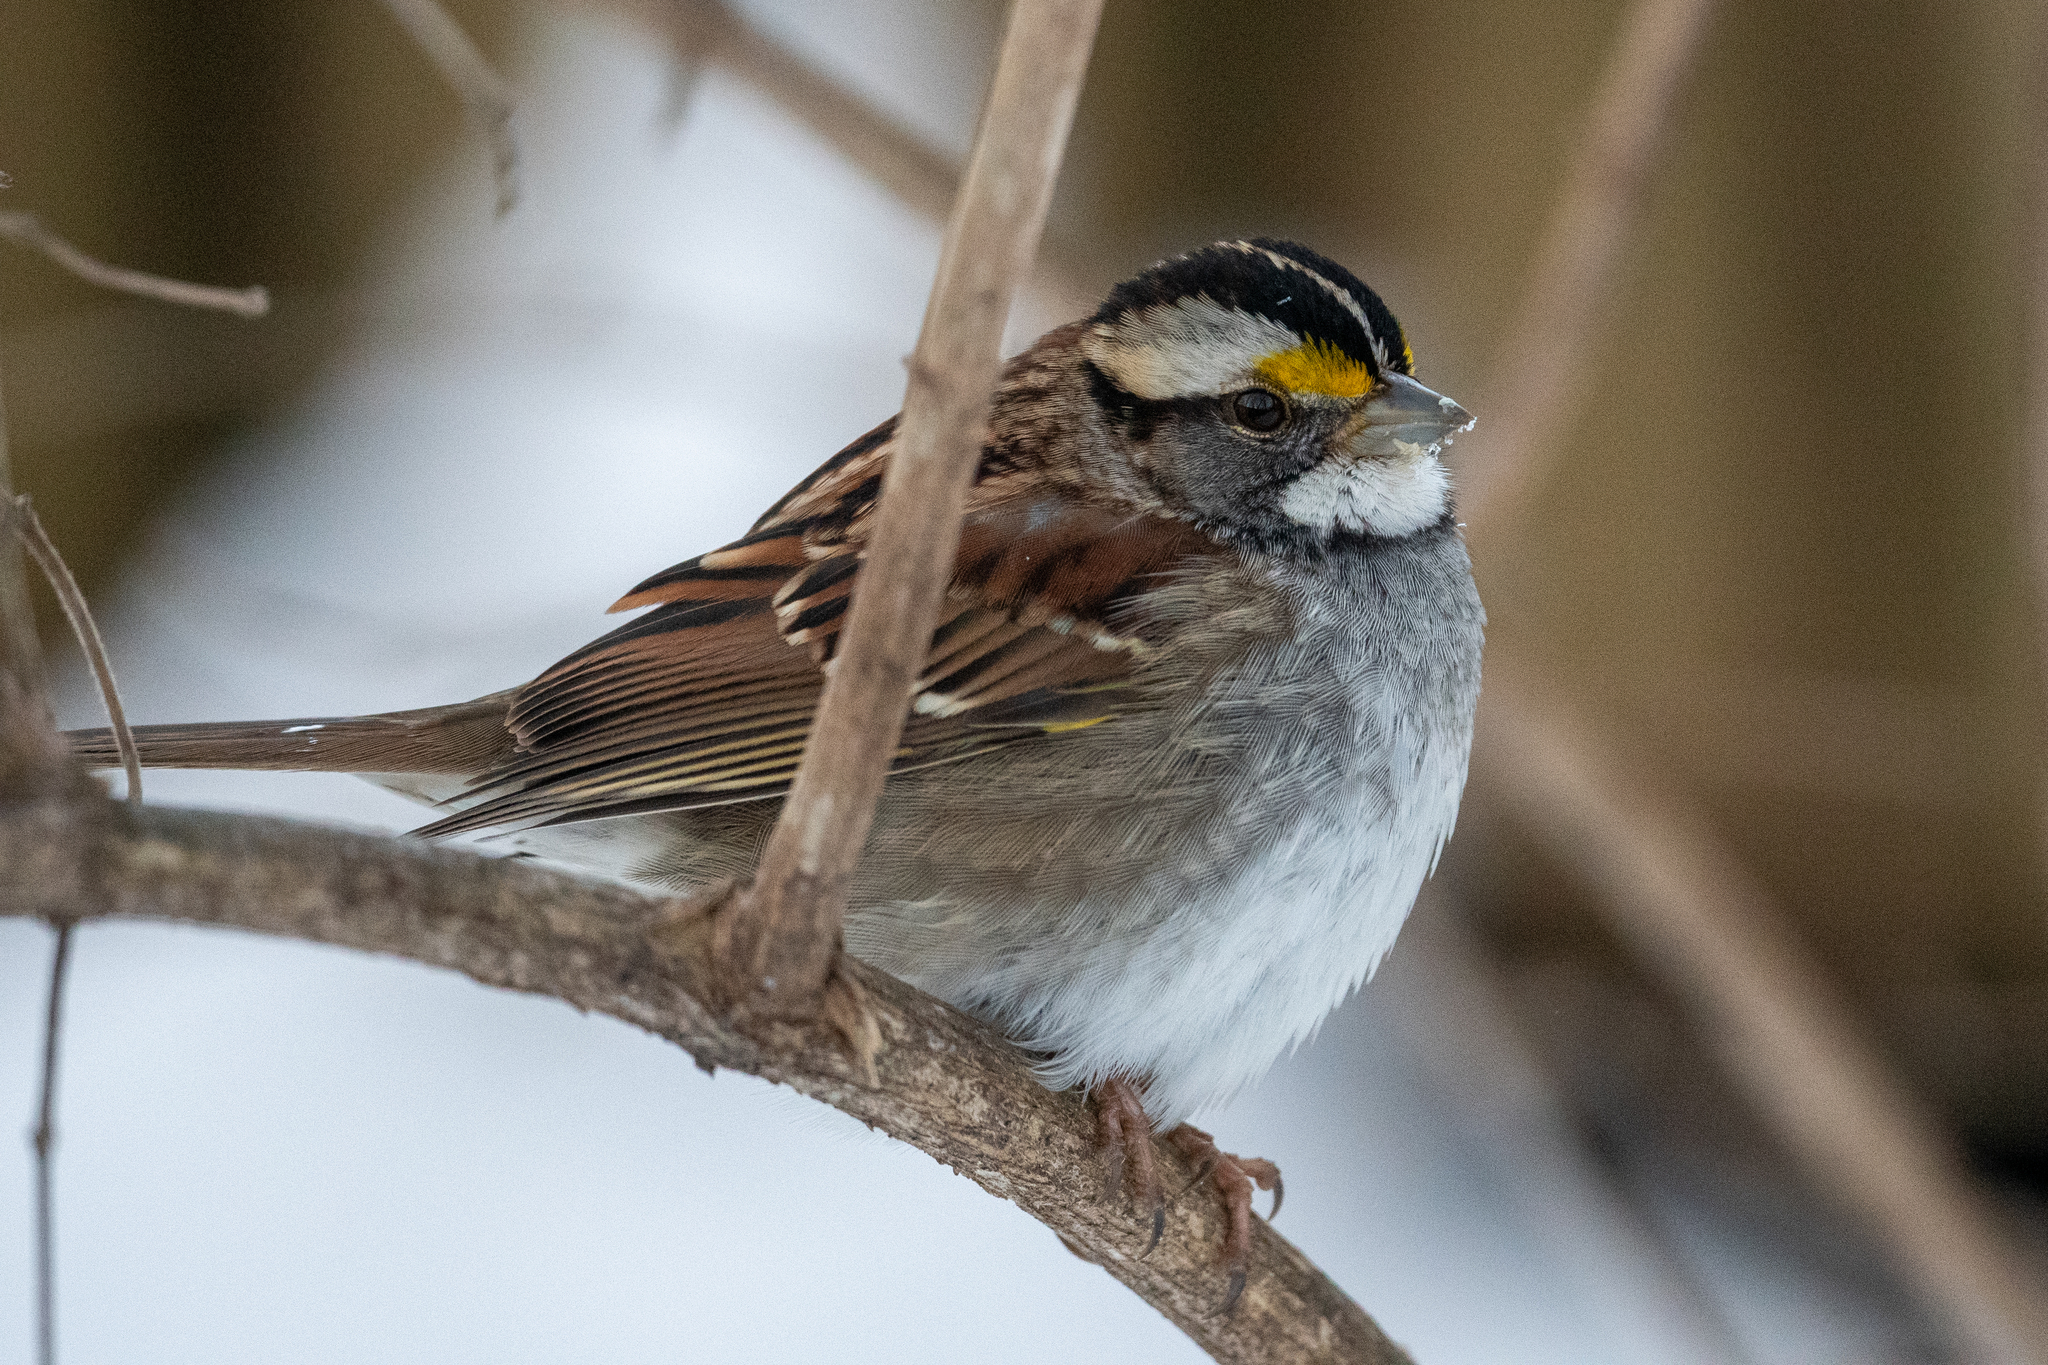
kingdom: Animalia
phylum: Chordata
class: Aves
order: Passeriformes
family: Passerellidae
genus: Zonotrichia
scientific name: Zonotrichia albicollis
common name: White-throated sparrow
